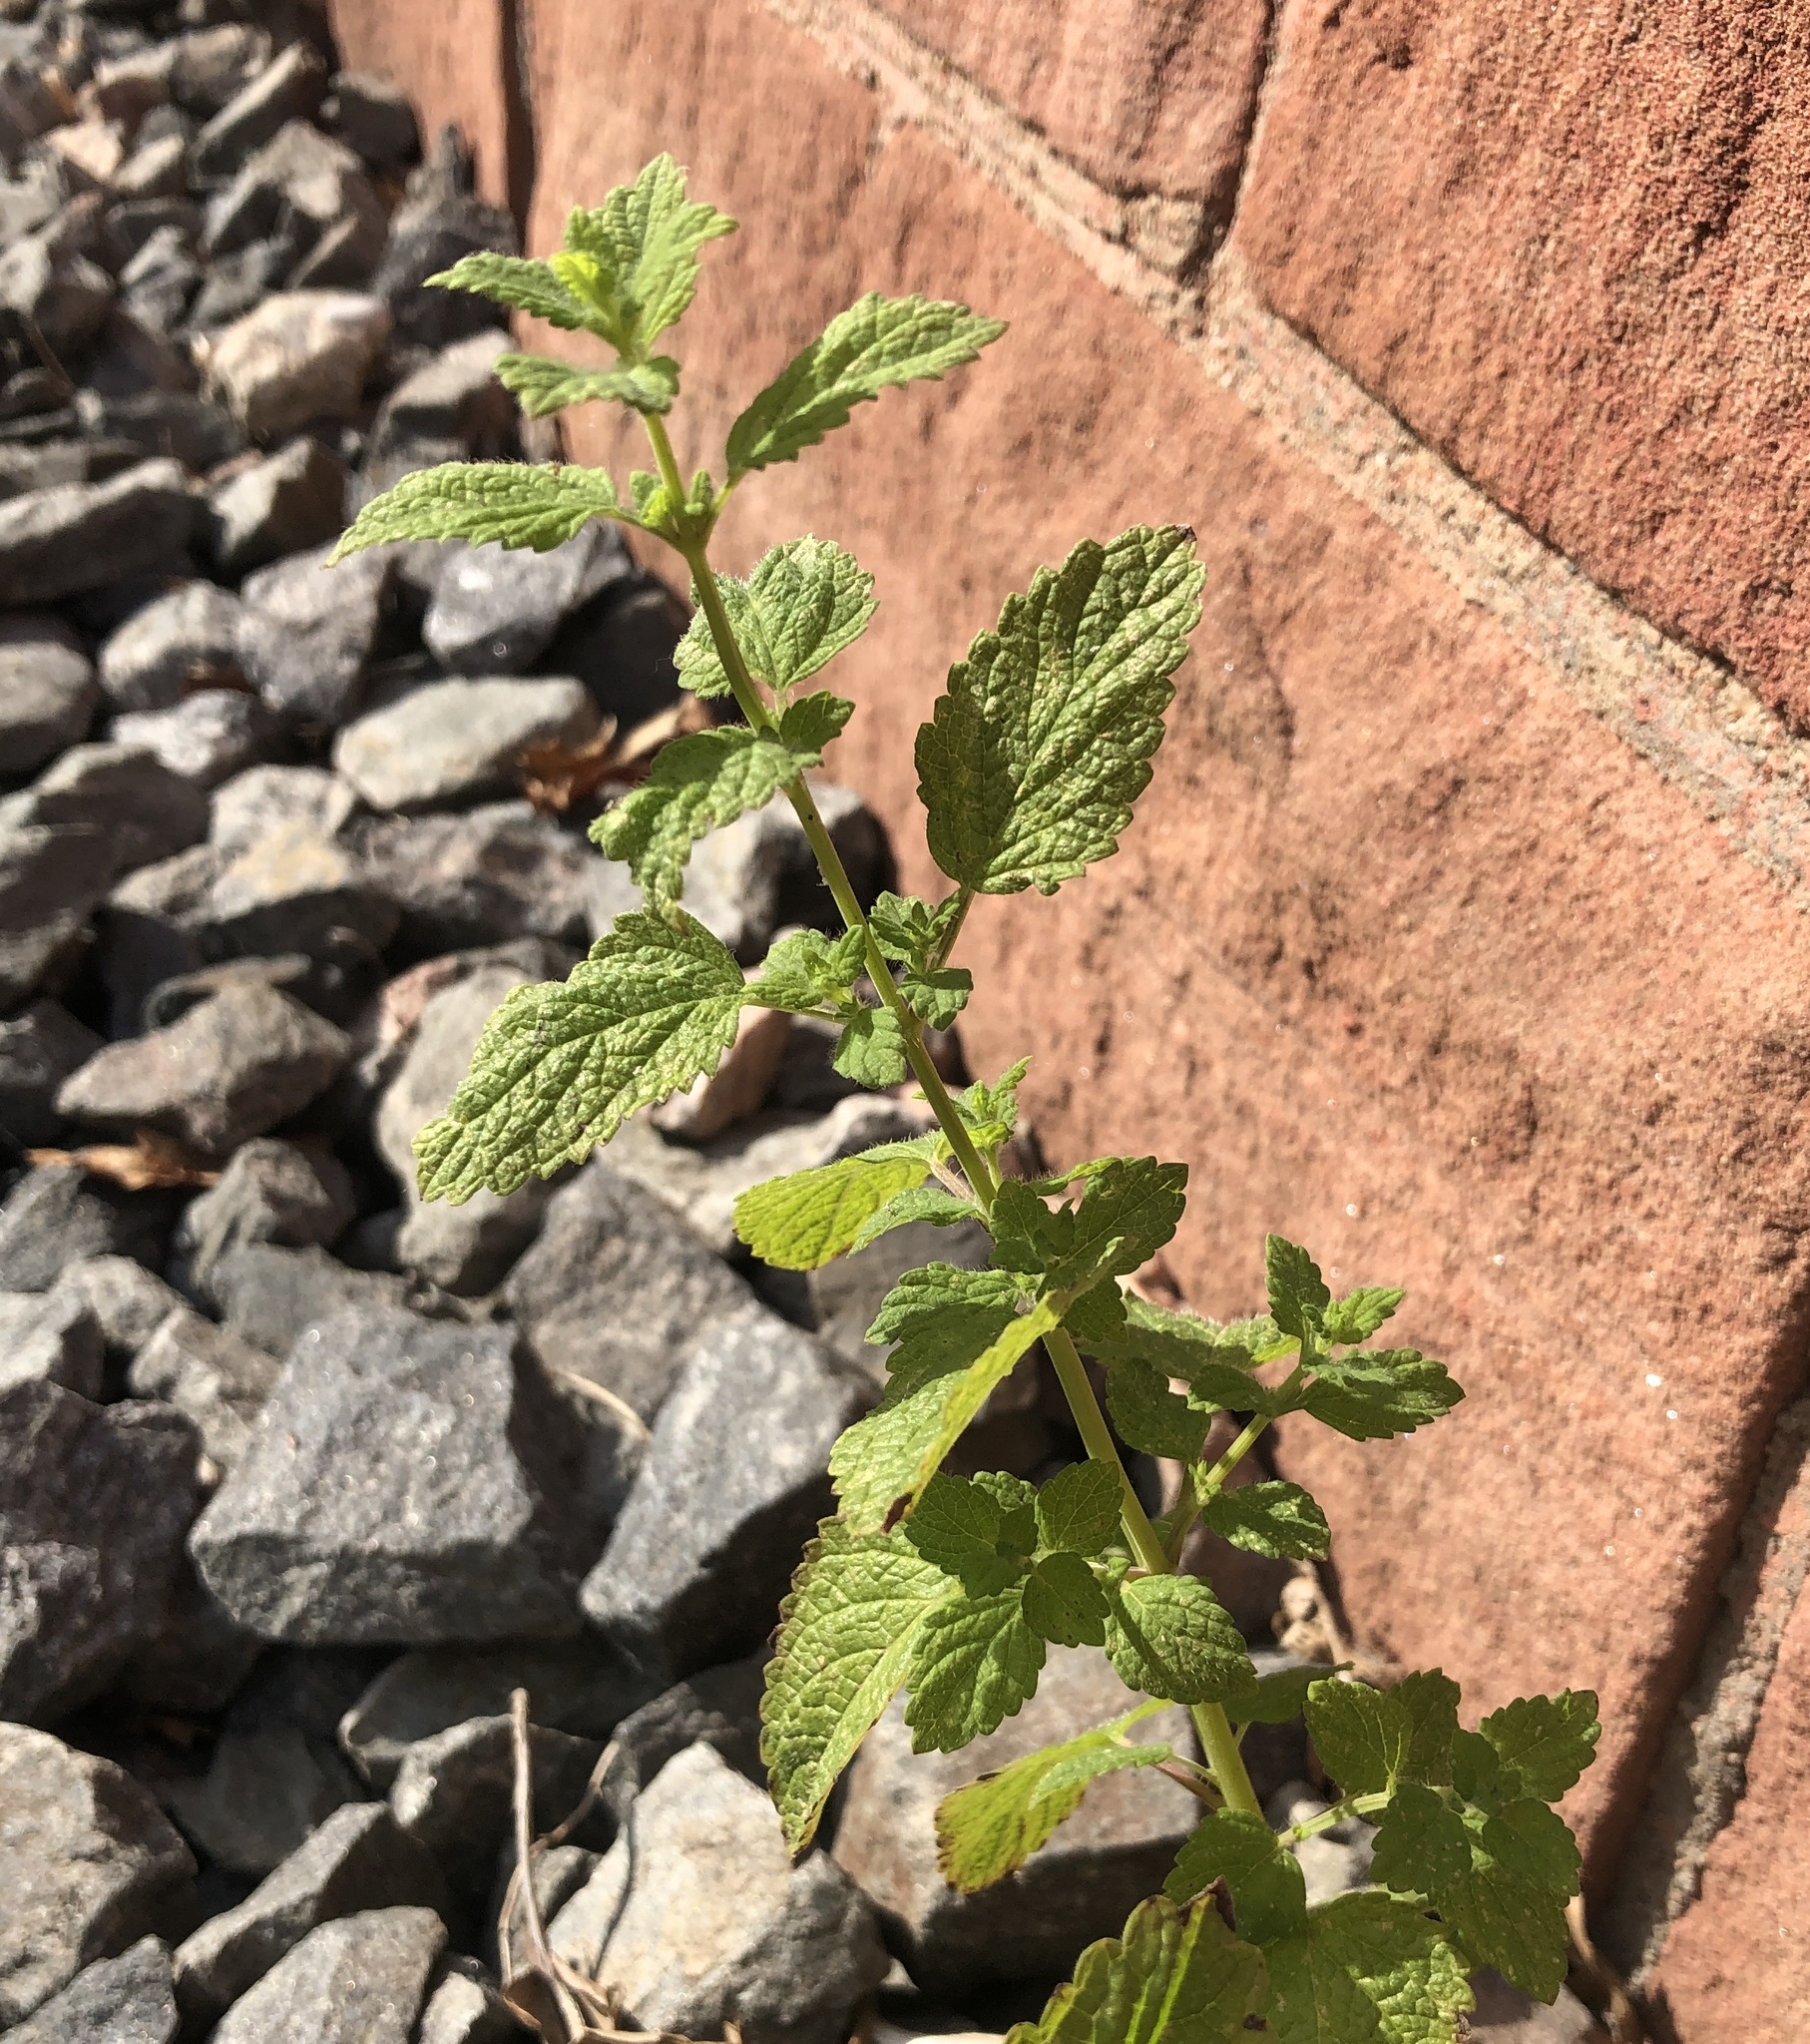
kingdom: Plantae
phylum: Tracheophyta
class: Magnoliopsida
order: Lamiales
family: Lamiaceae
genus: Melissa
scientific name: Melissa officinalis
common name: Balm
